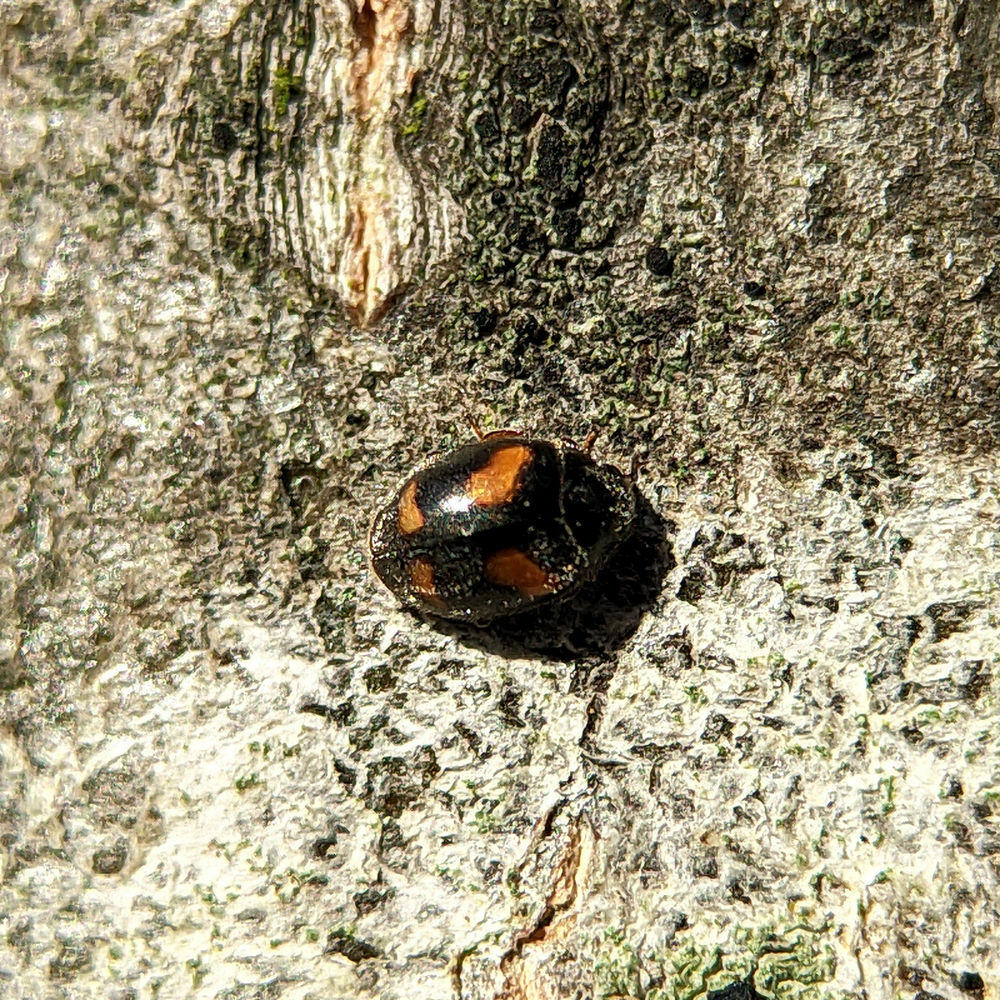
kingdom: Animalia
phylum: Arthropoda
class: Insecta
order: Coleoptera
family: Coccinellidae
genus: Nephus
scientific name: Nephus quadrimaculatus
